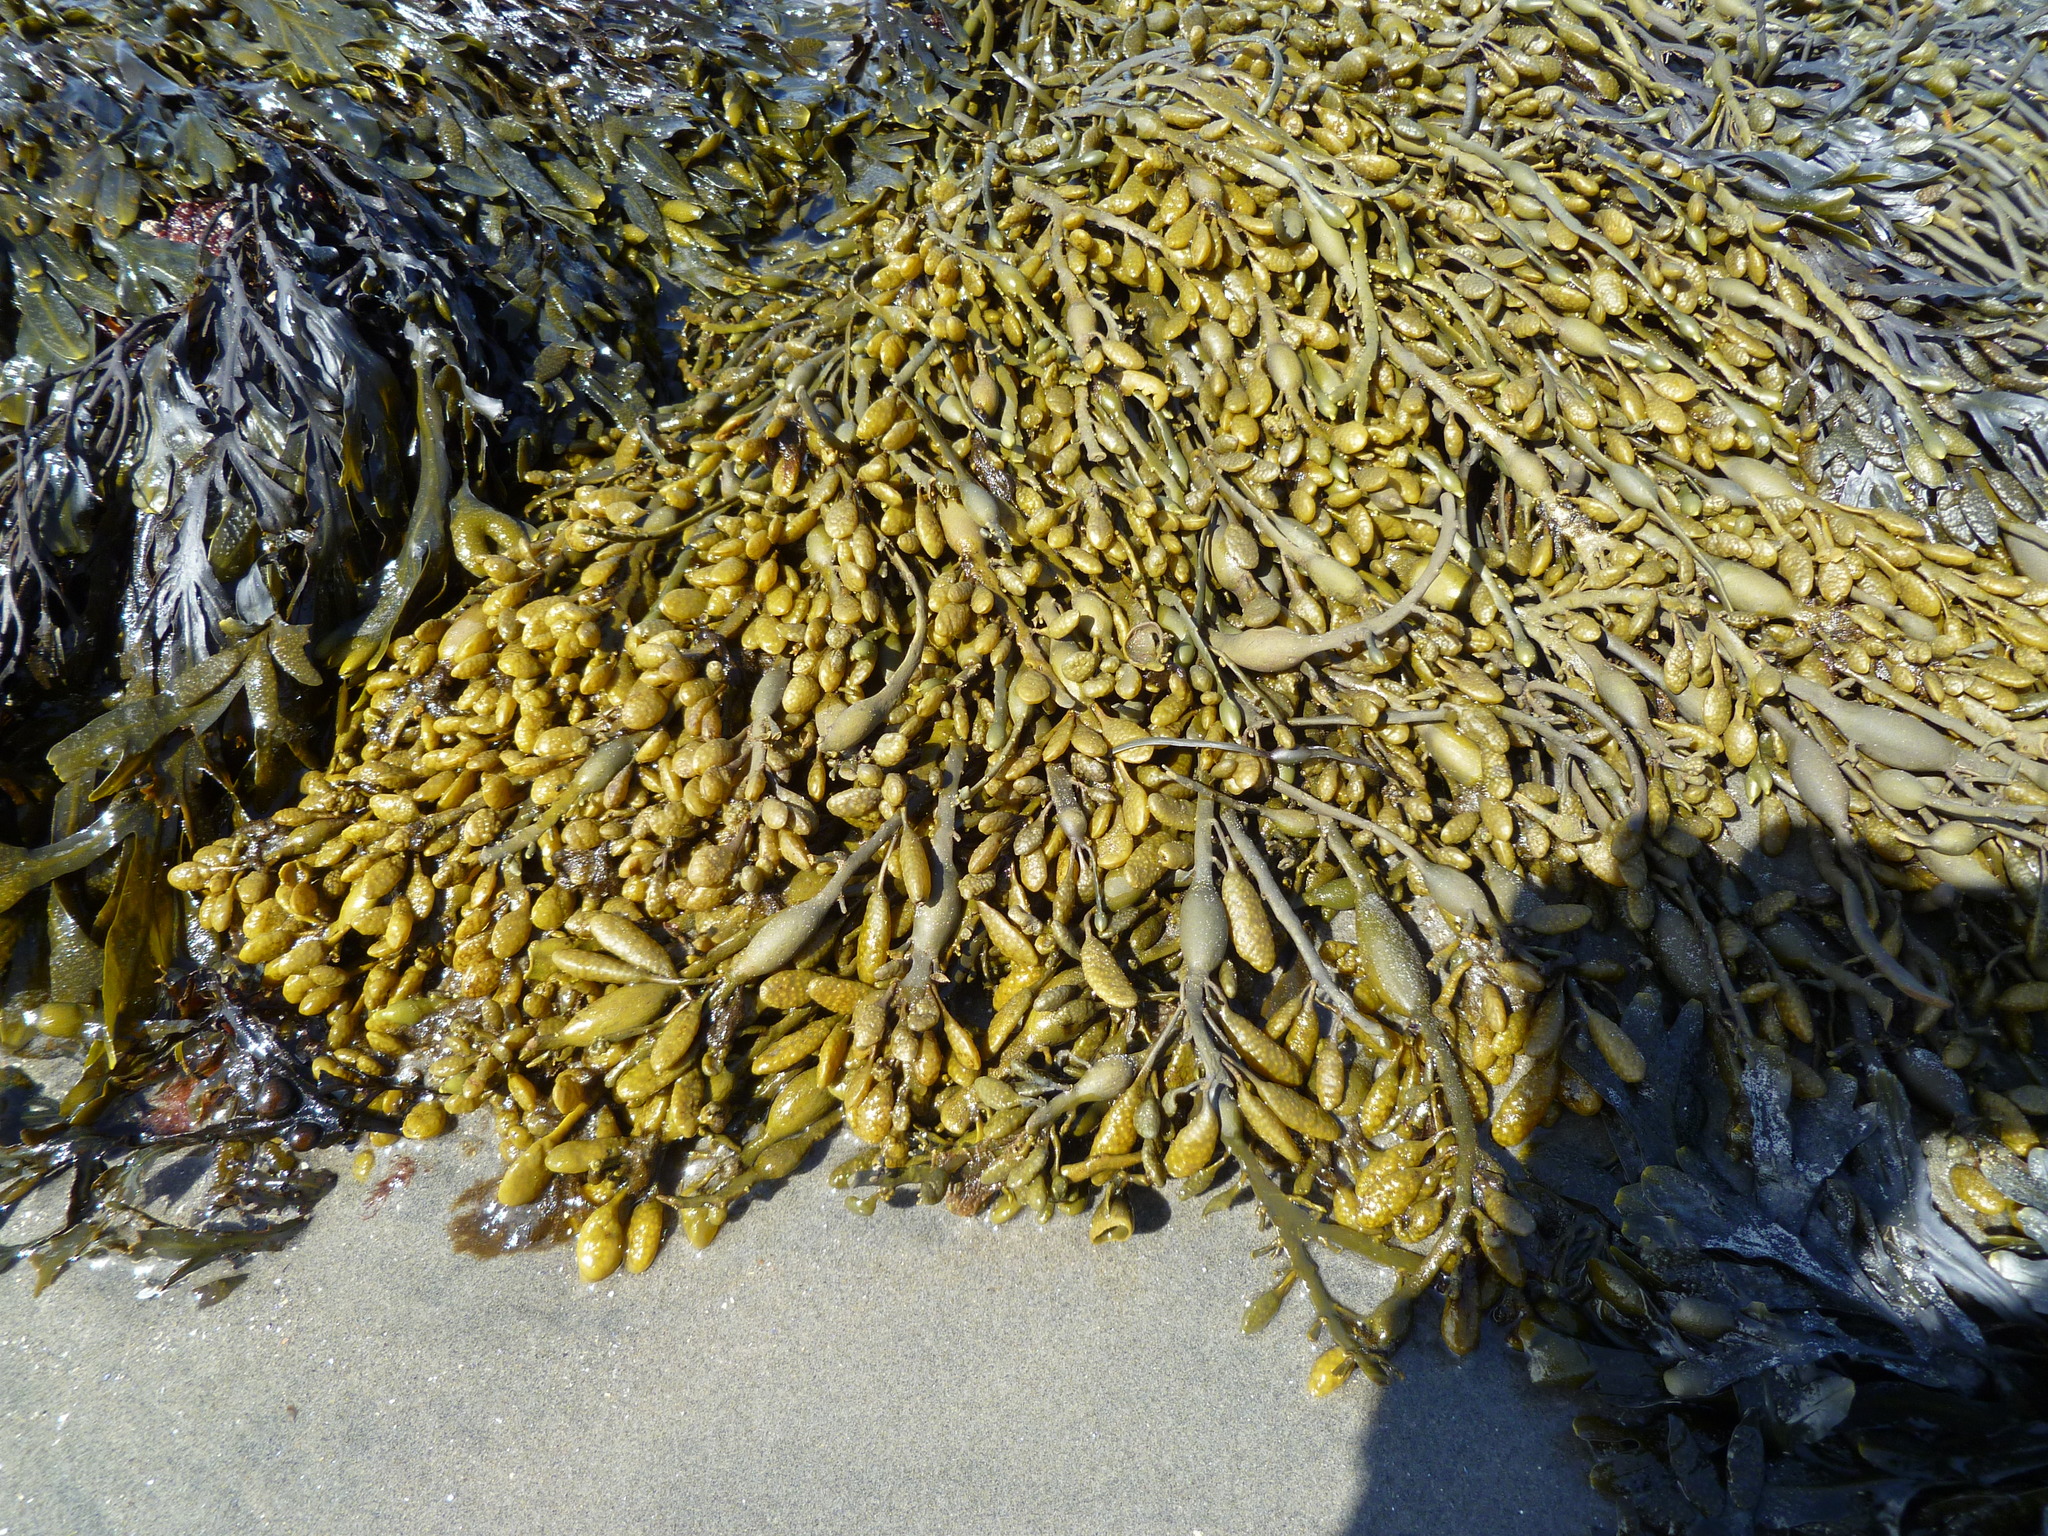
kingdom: Chromista
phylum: Ochrophyta
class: Phaeophyceae
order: Fucales
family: Fucaceae
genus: Ascophyllum
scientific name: Ascophyllum nodosum
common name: Knotted wrack
